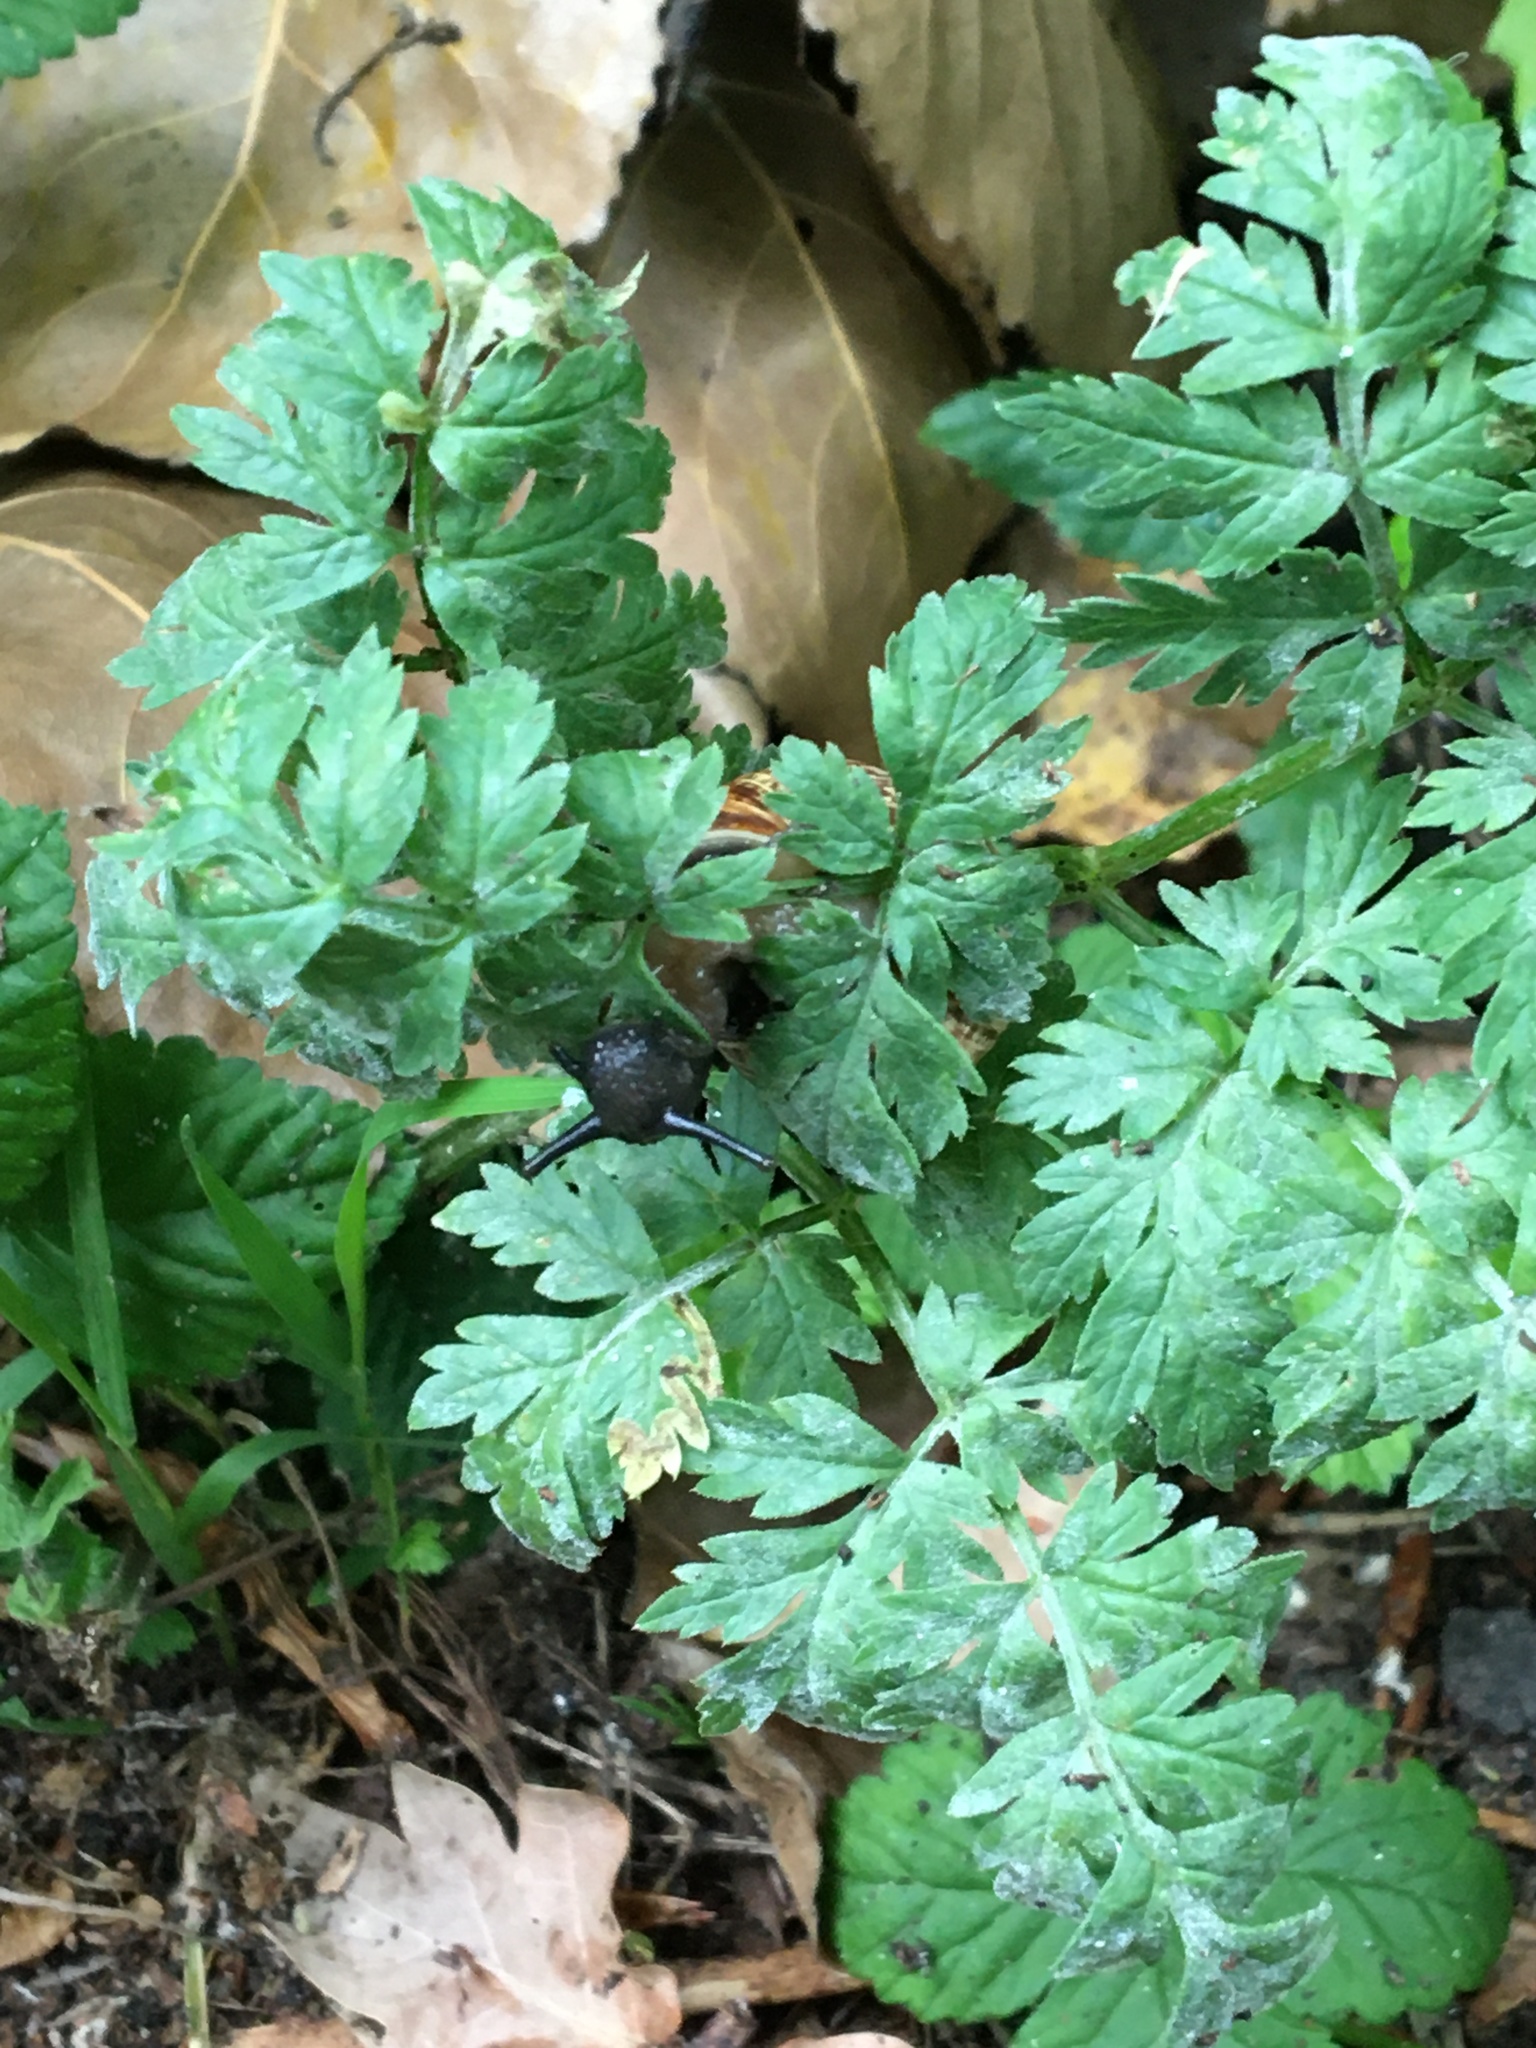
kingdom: Animalia
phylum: Mollusca
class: Gastropoda
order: Stylommatophora
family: Helicidae
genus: Cornu
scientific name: Cornu aspersum
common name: Brown garden snail
